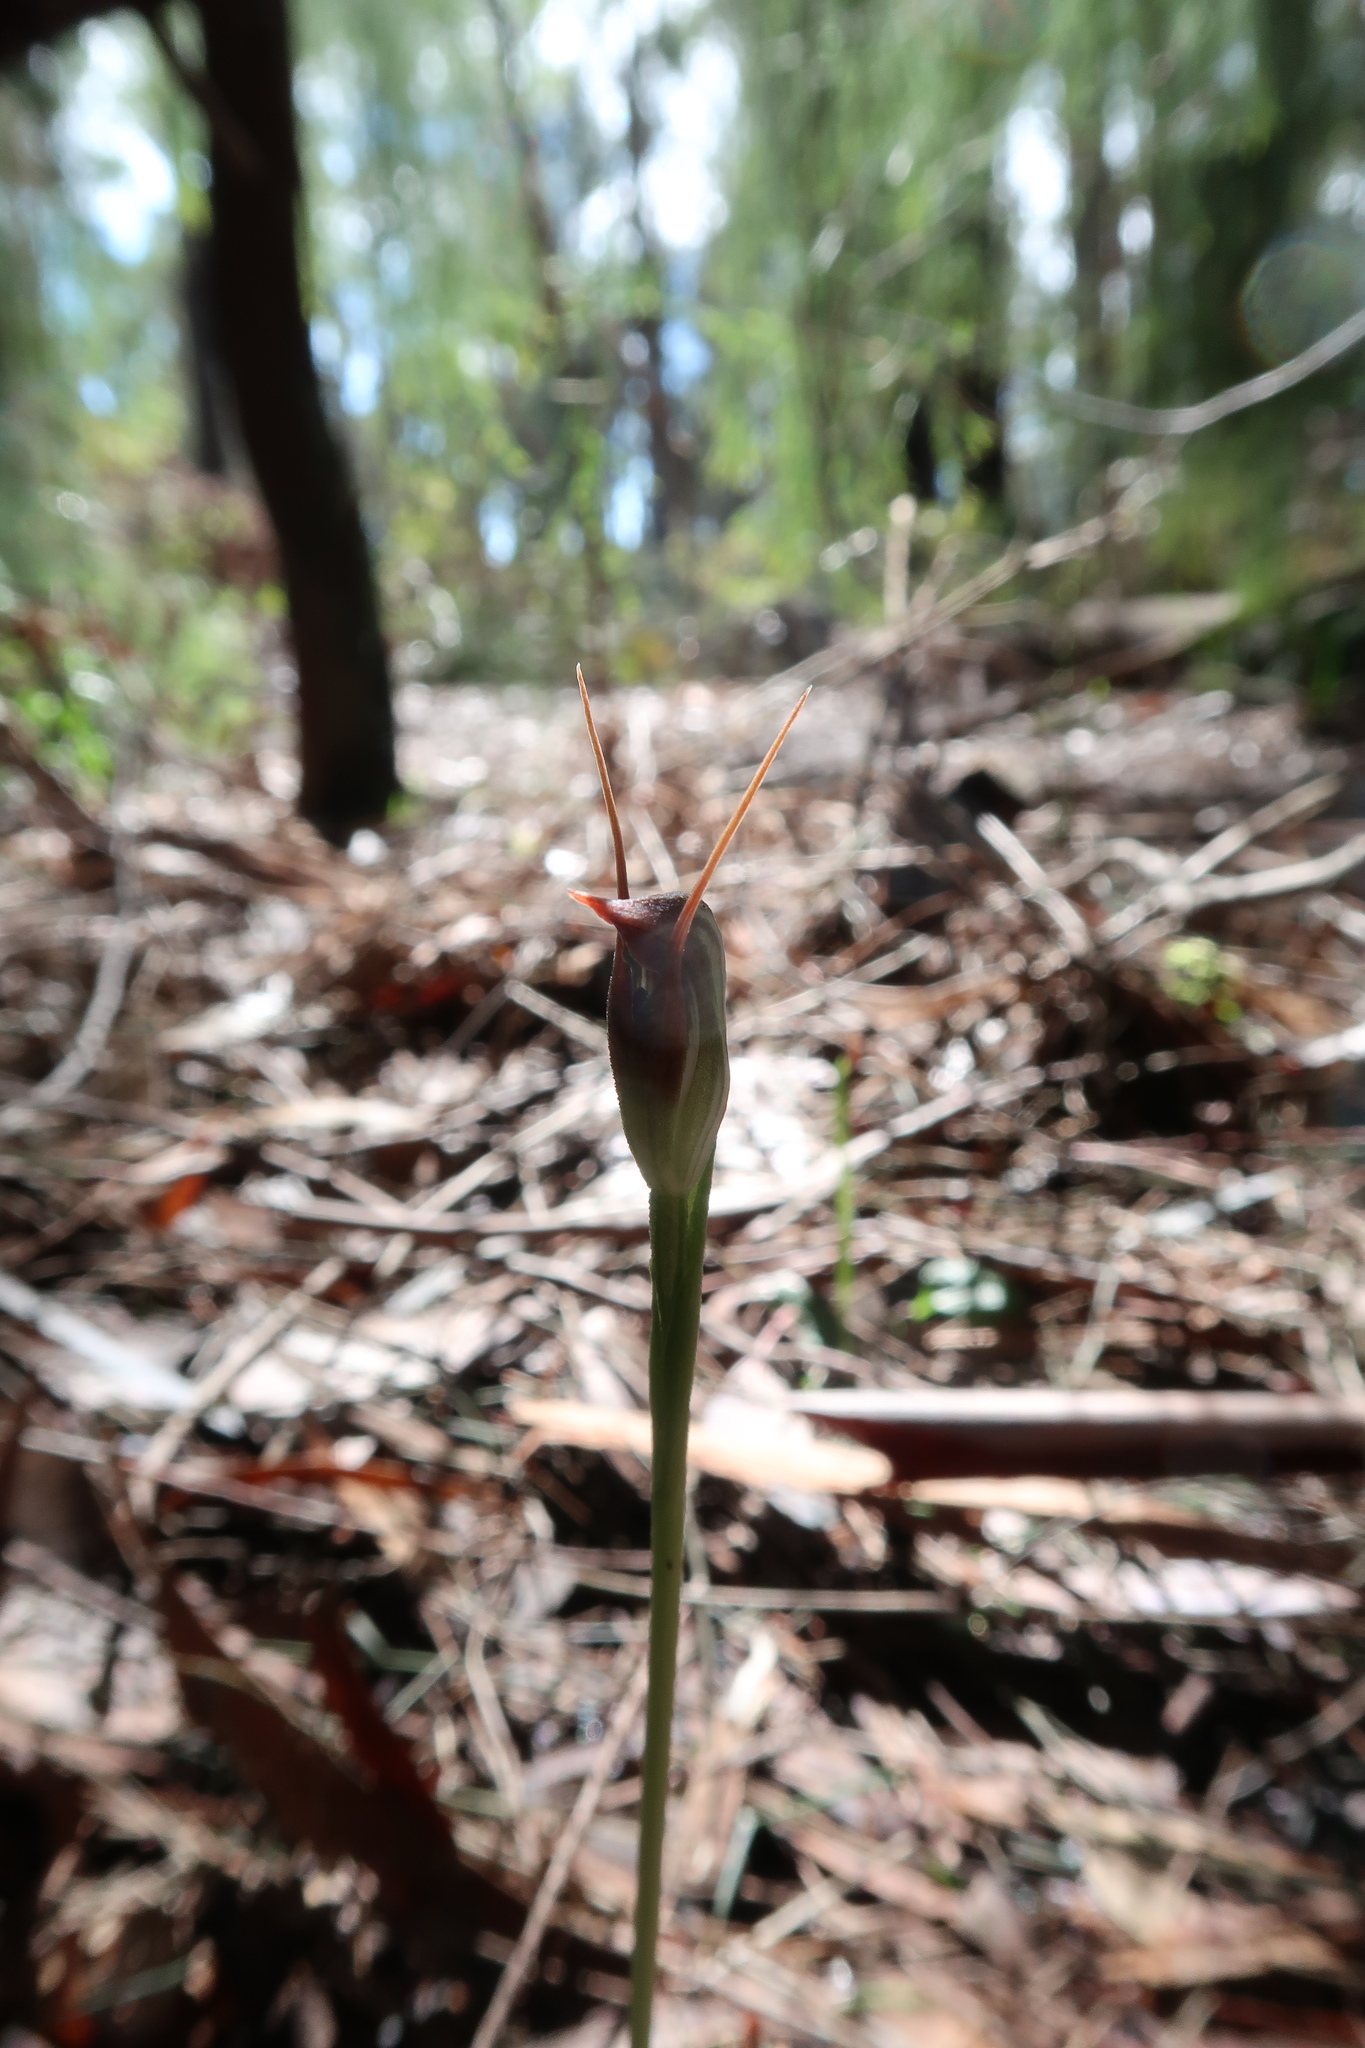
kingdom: Plantae
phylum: Tracheophyta
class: Liliopsida
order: Asparagales
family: Orchidaceae
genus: Pterostylis
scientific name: Pterostylis pedunculata
